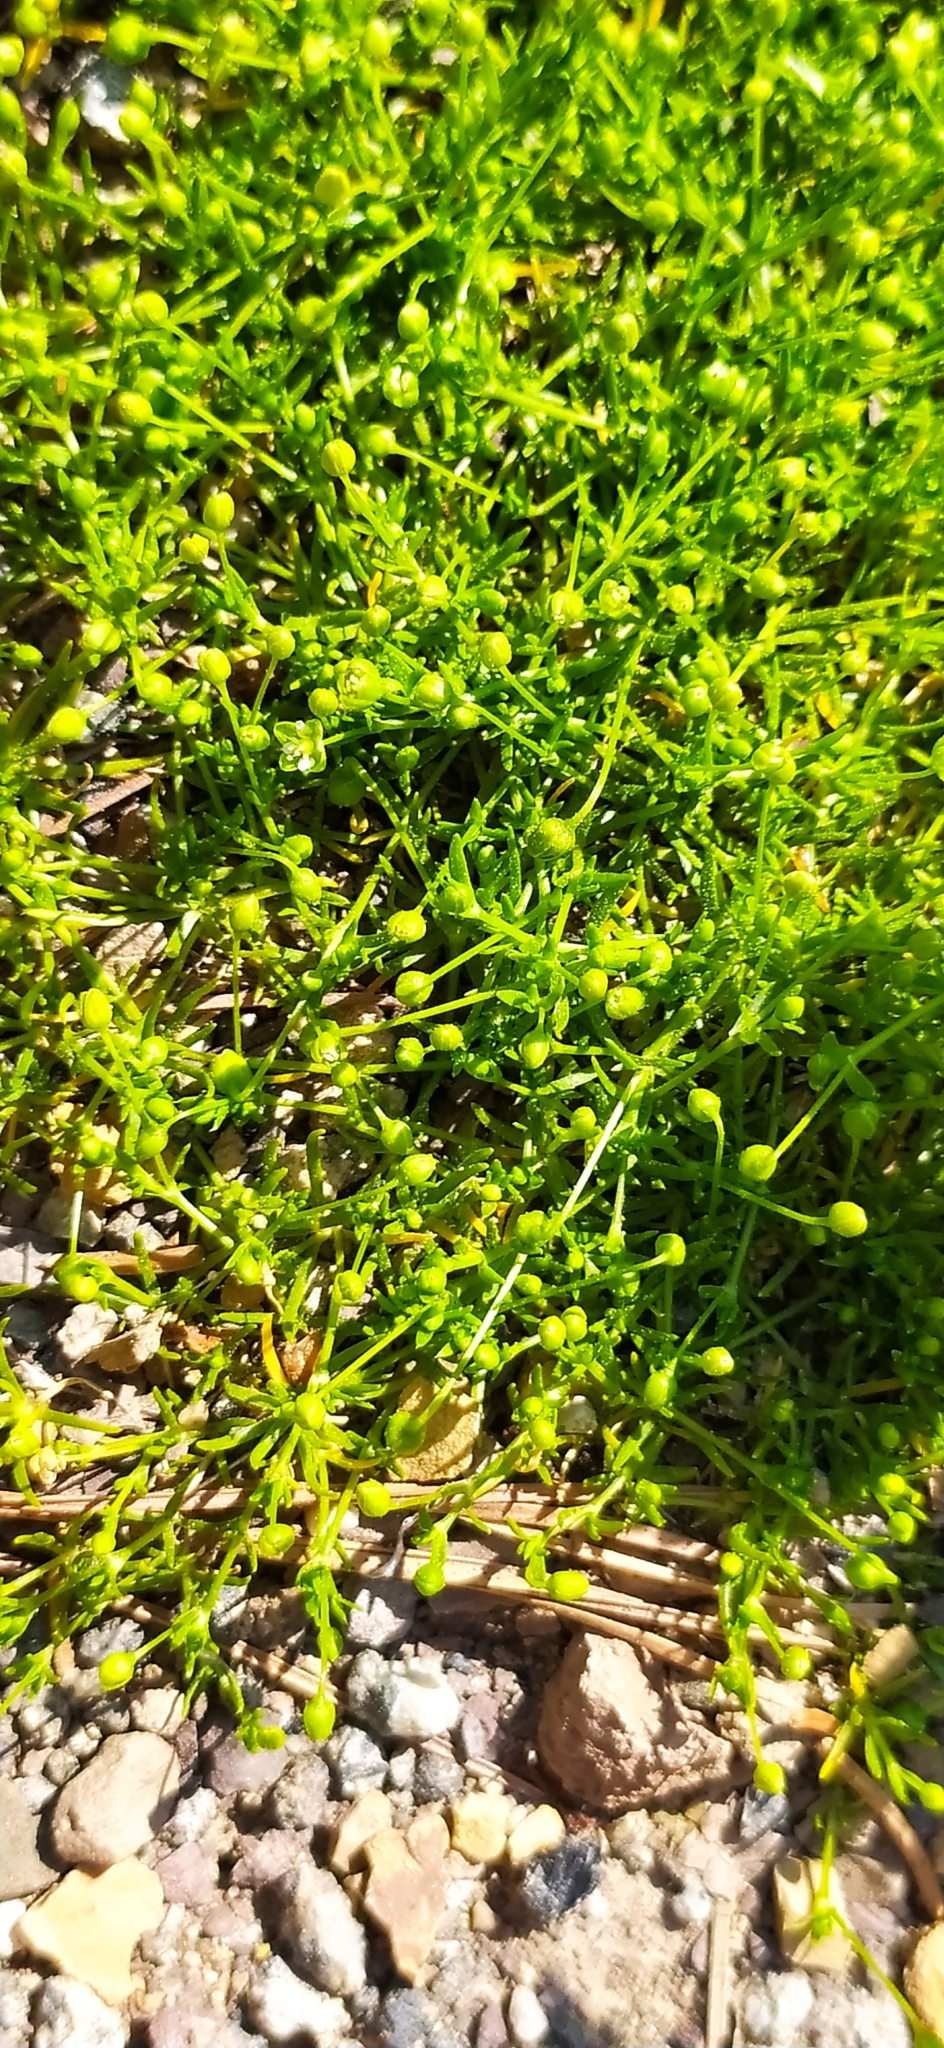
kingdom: Plantae
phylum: Tracheophyta
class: Magnoliopsida
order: Caryophyllales
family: Caryophyllaceae
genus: Sagina
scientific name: Sagina procumbens
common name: Procumbent pearlwort
